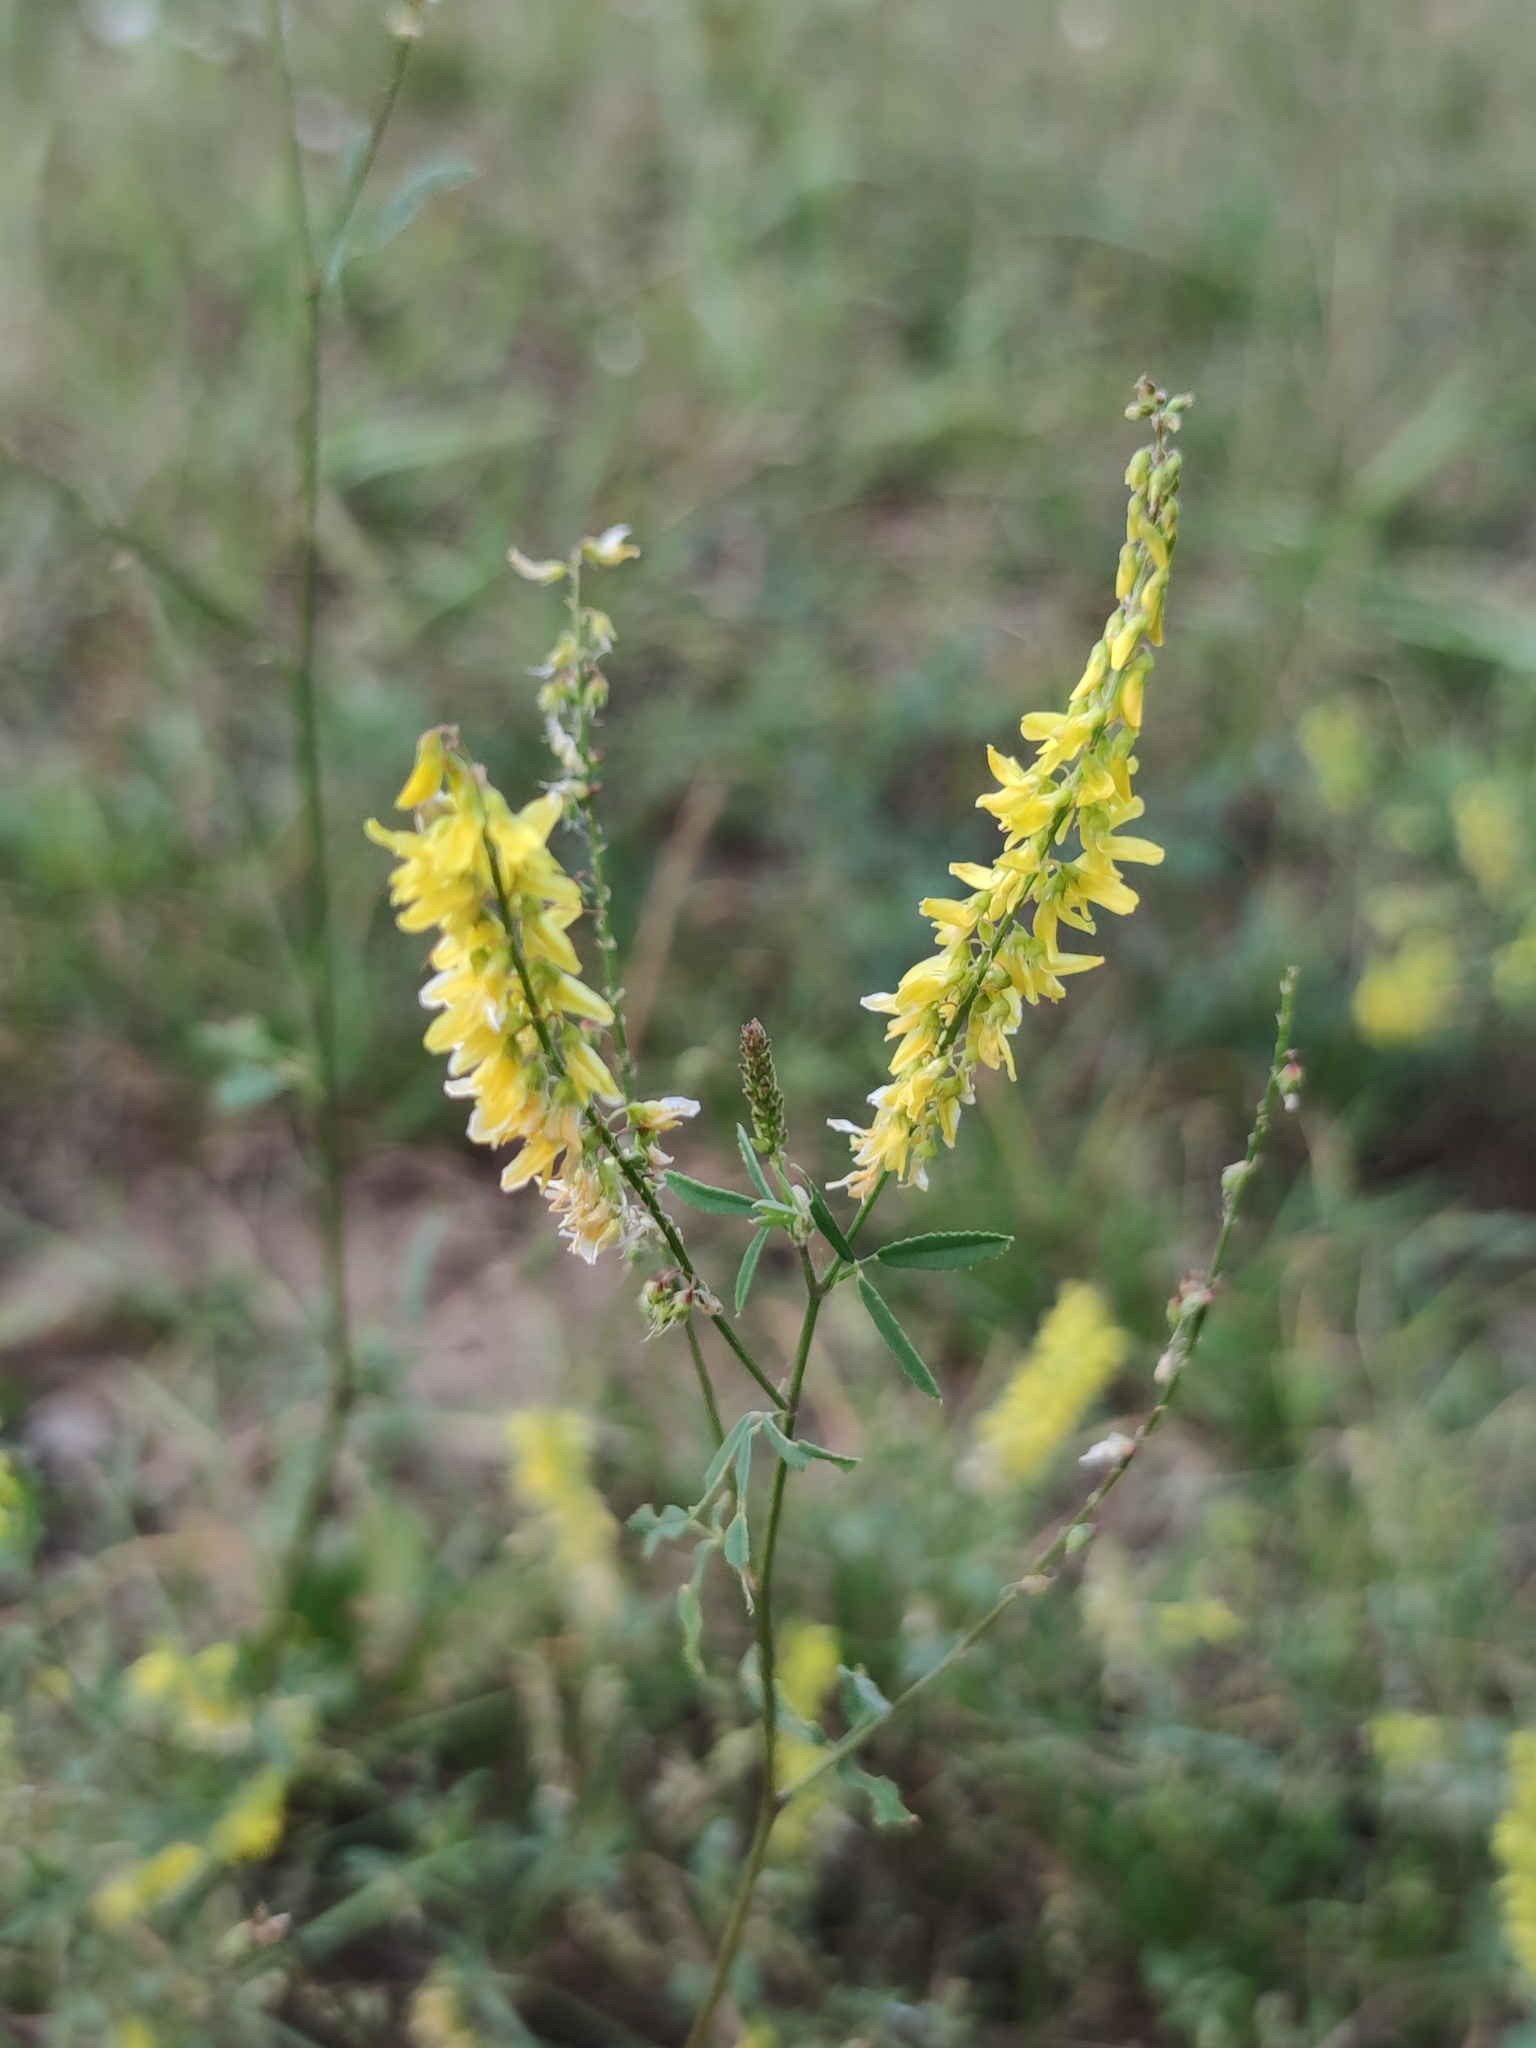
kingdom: Plantae
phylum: Tracheophyta
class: Magnoliopsida
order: Fabales
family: Fabaceae
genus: Melilotus
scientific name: Melilotus officinalis
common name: Sweetclover
